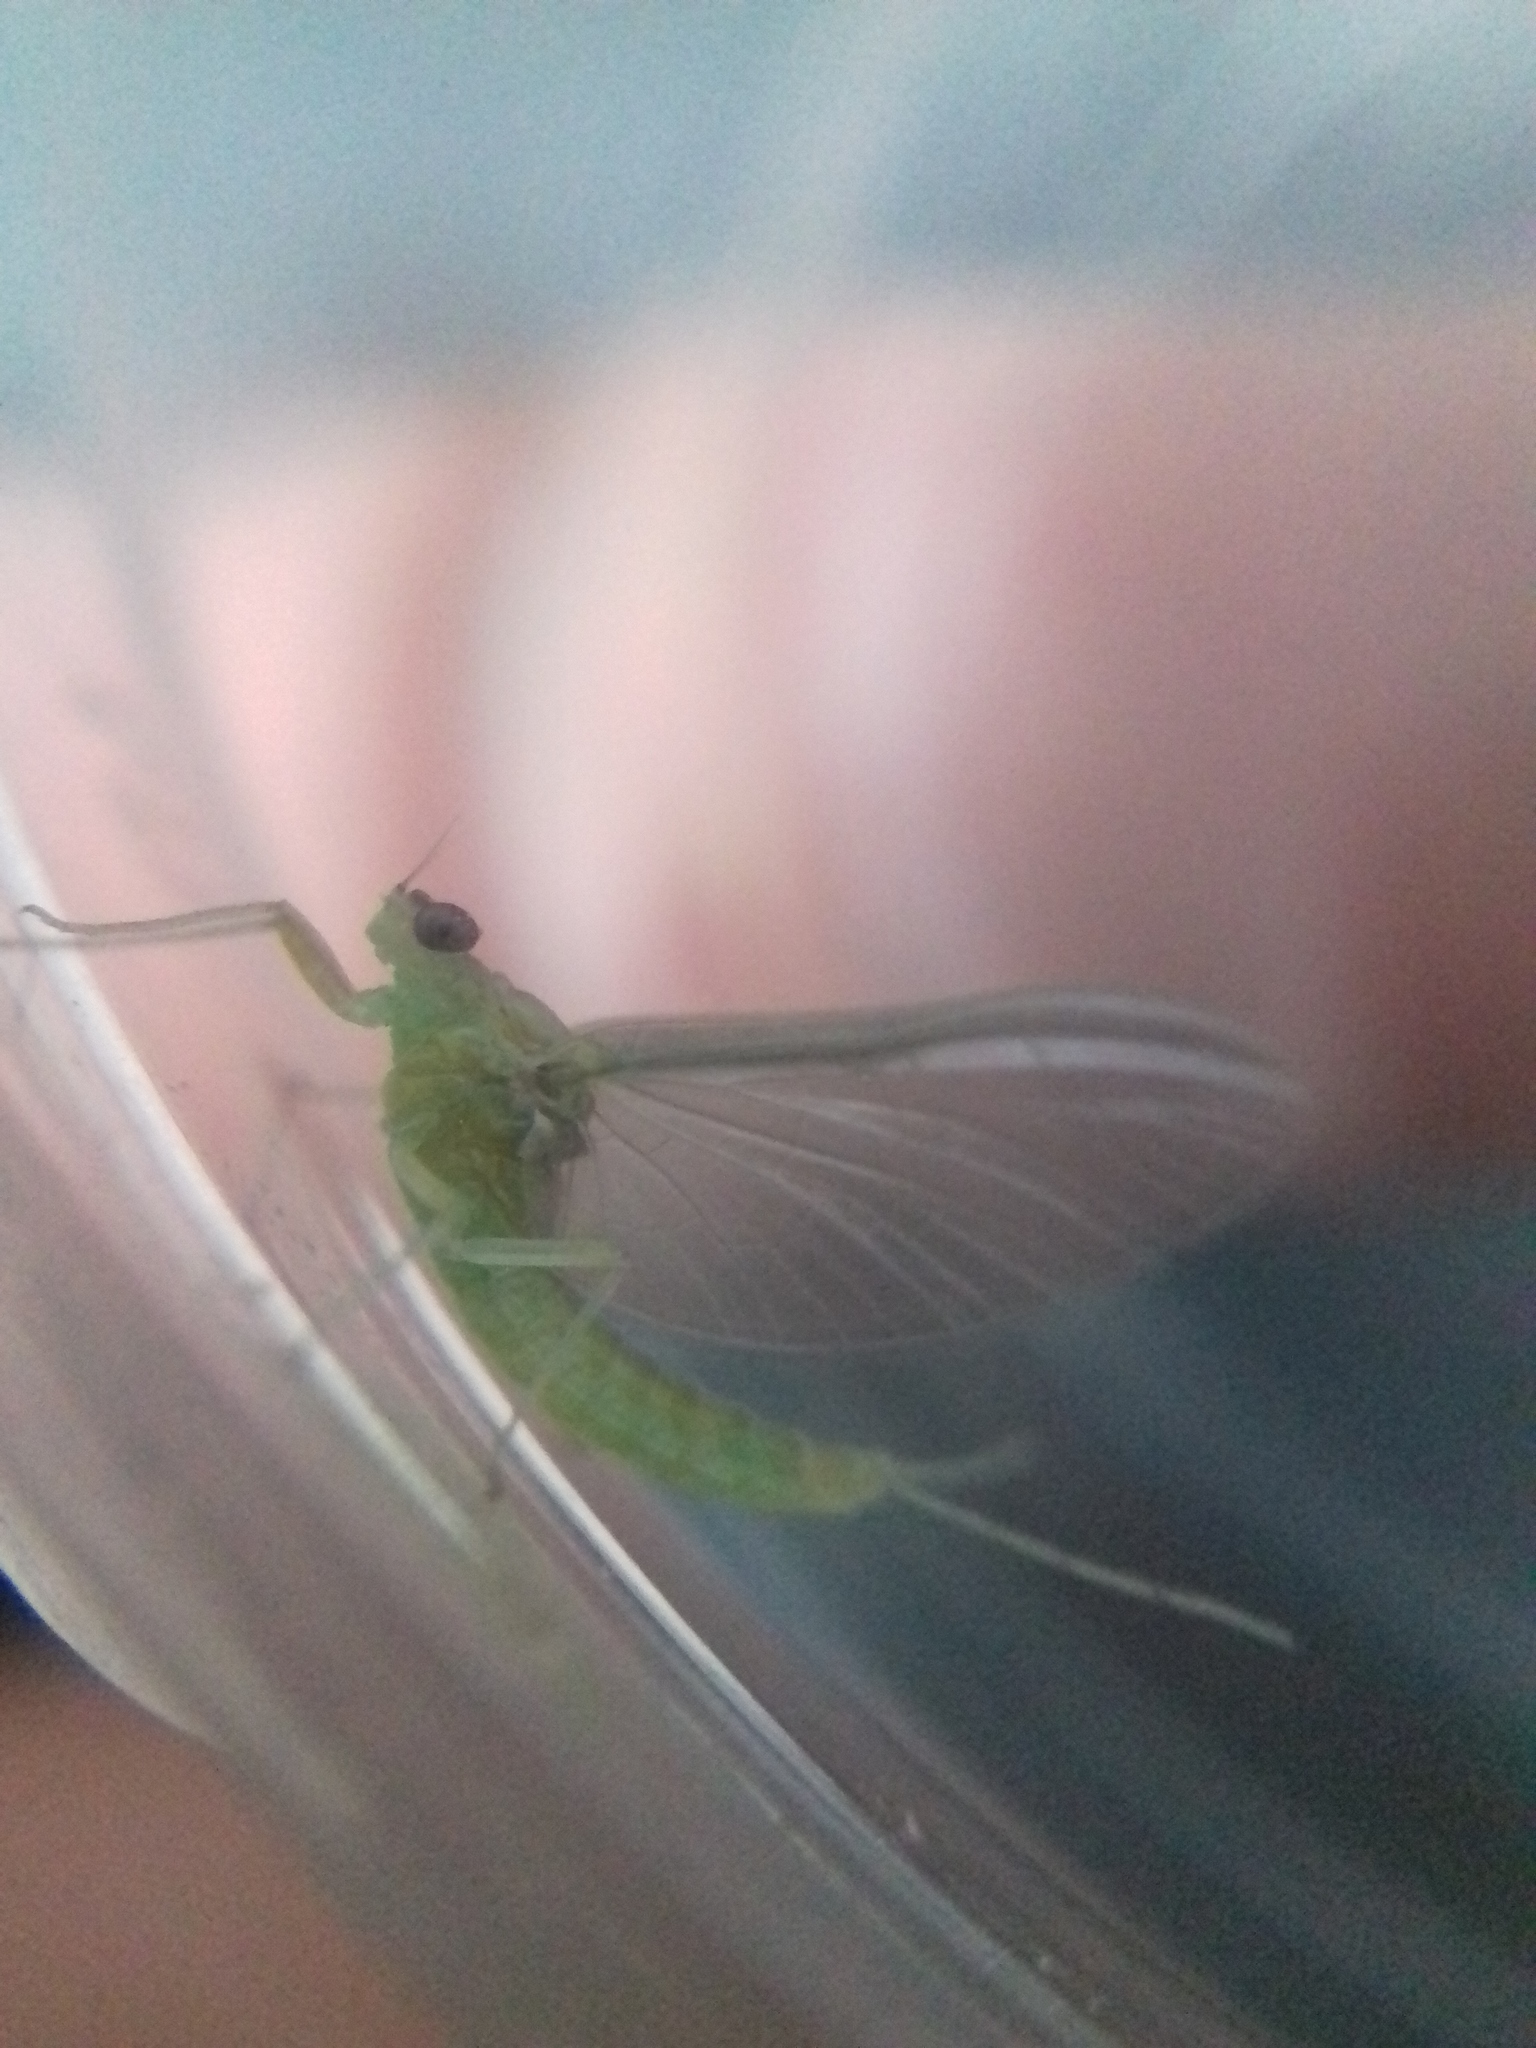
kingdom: Animalia
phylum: Arthropoda
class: Insecta
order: Ephemeroptera
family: Baetidae
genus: Cloeon
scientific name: Cloeon dipterum
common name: Pond olive
